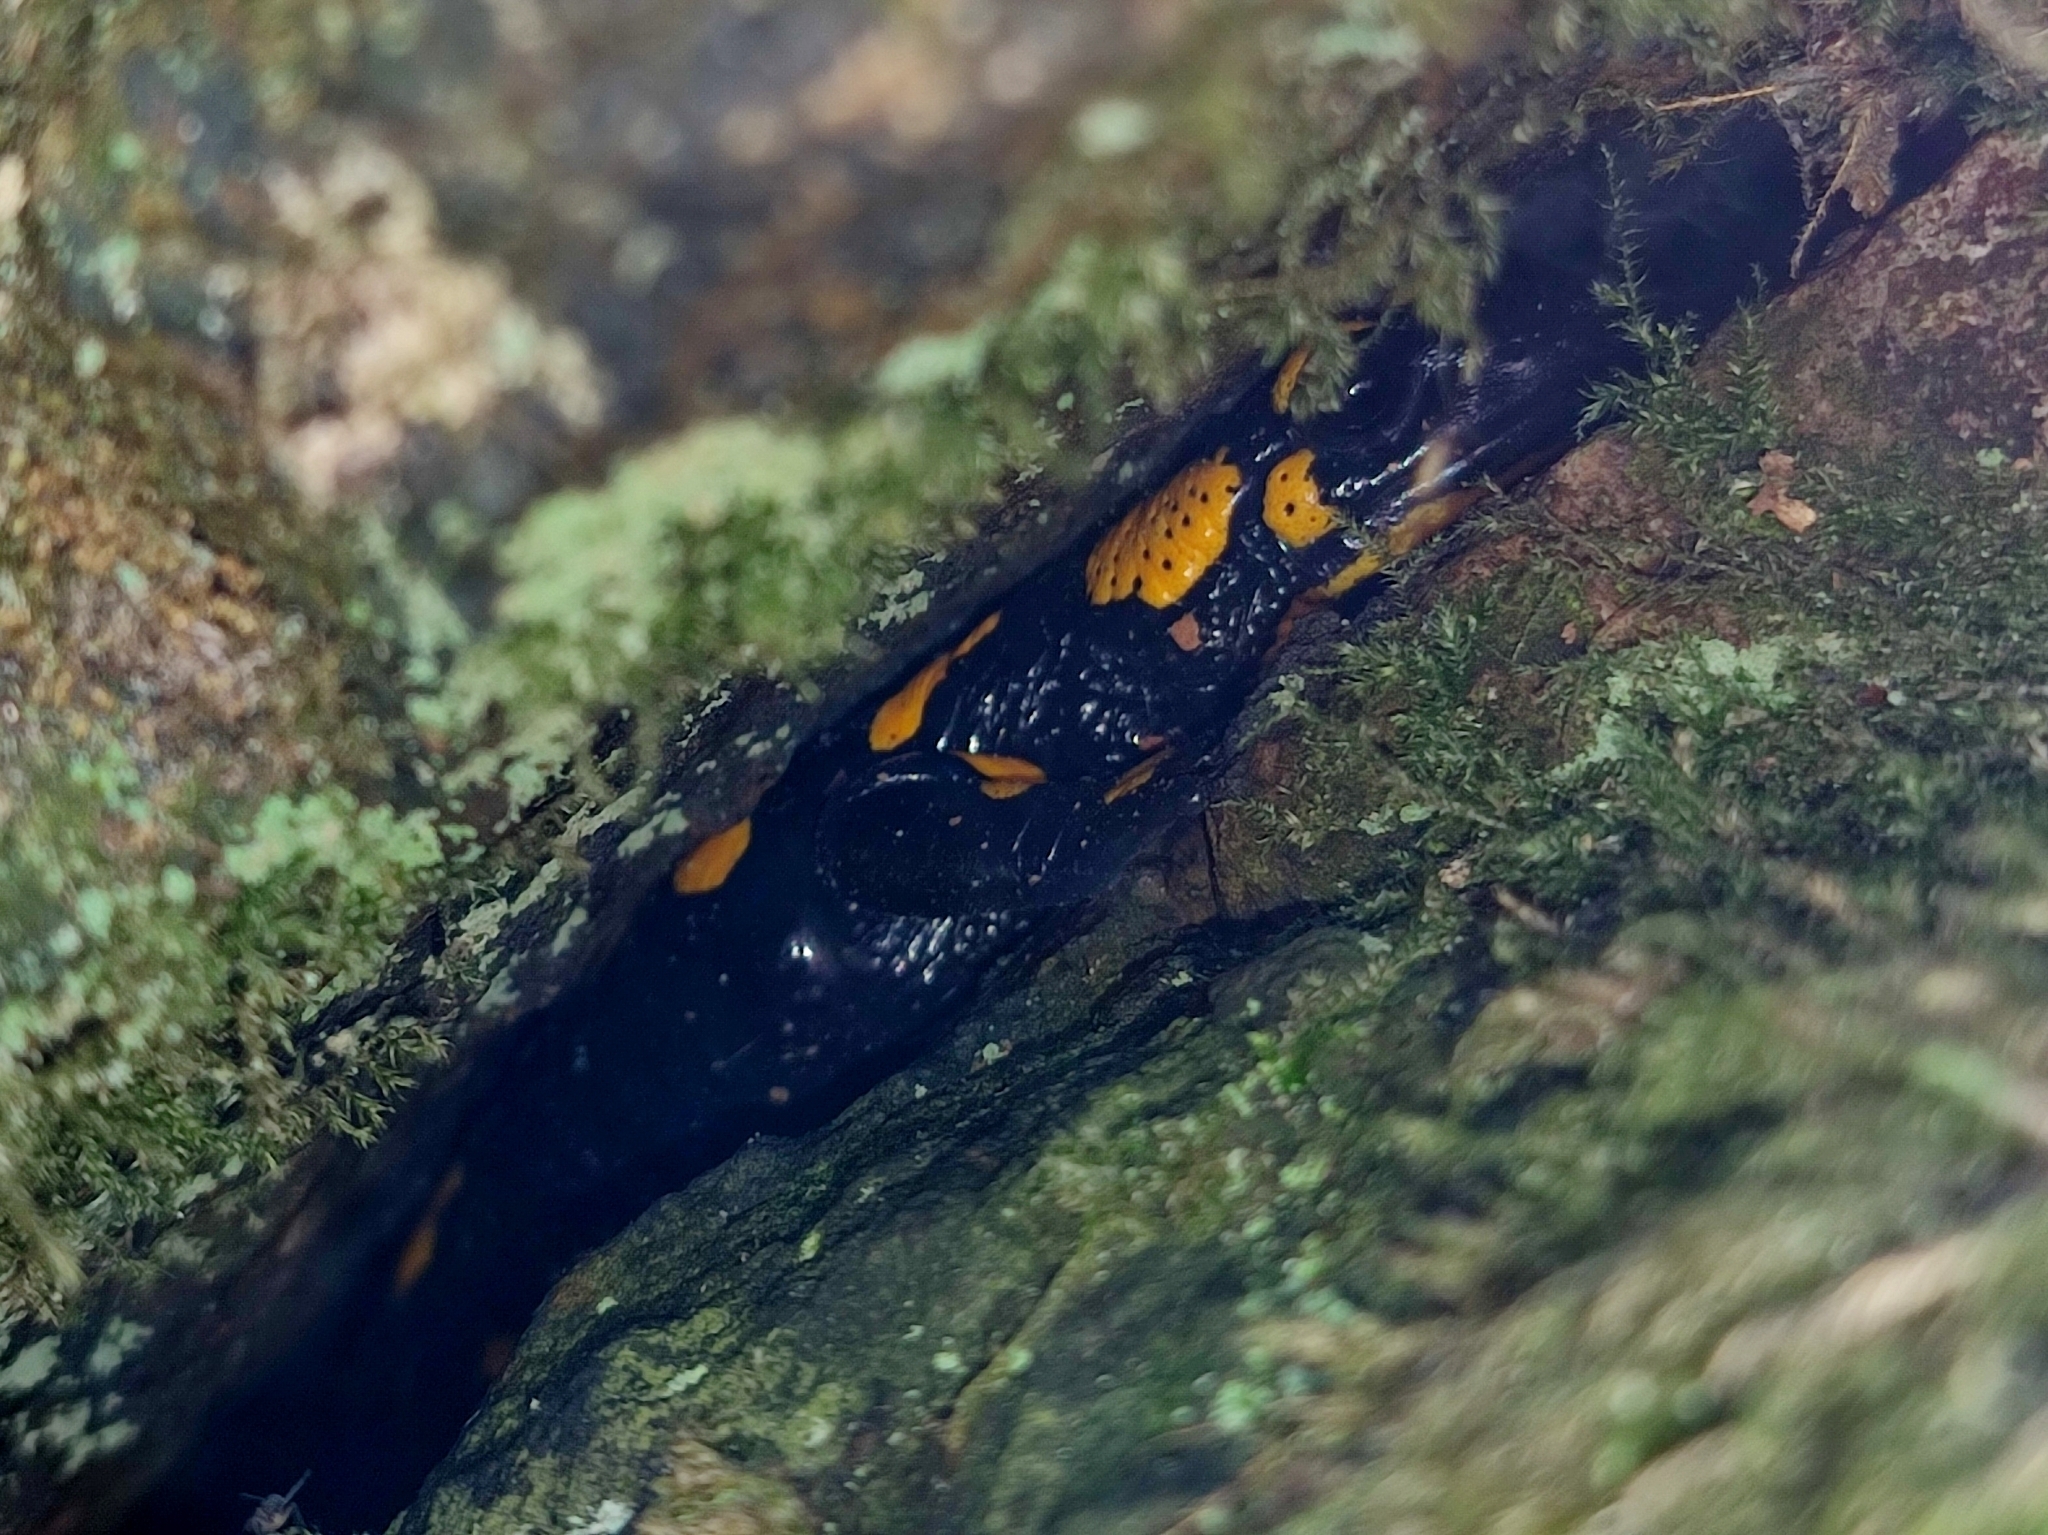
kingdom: Animalia
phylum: Chordata
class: Amphibia
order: Caudata
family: Salamandridae
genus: Salamandra
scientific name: Salamandra salamandra
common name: Fire salamander
